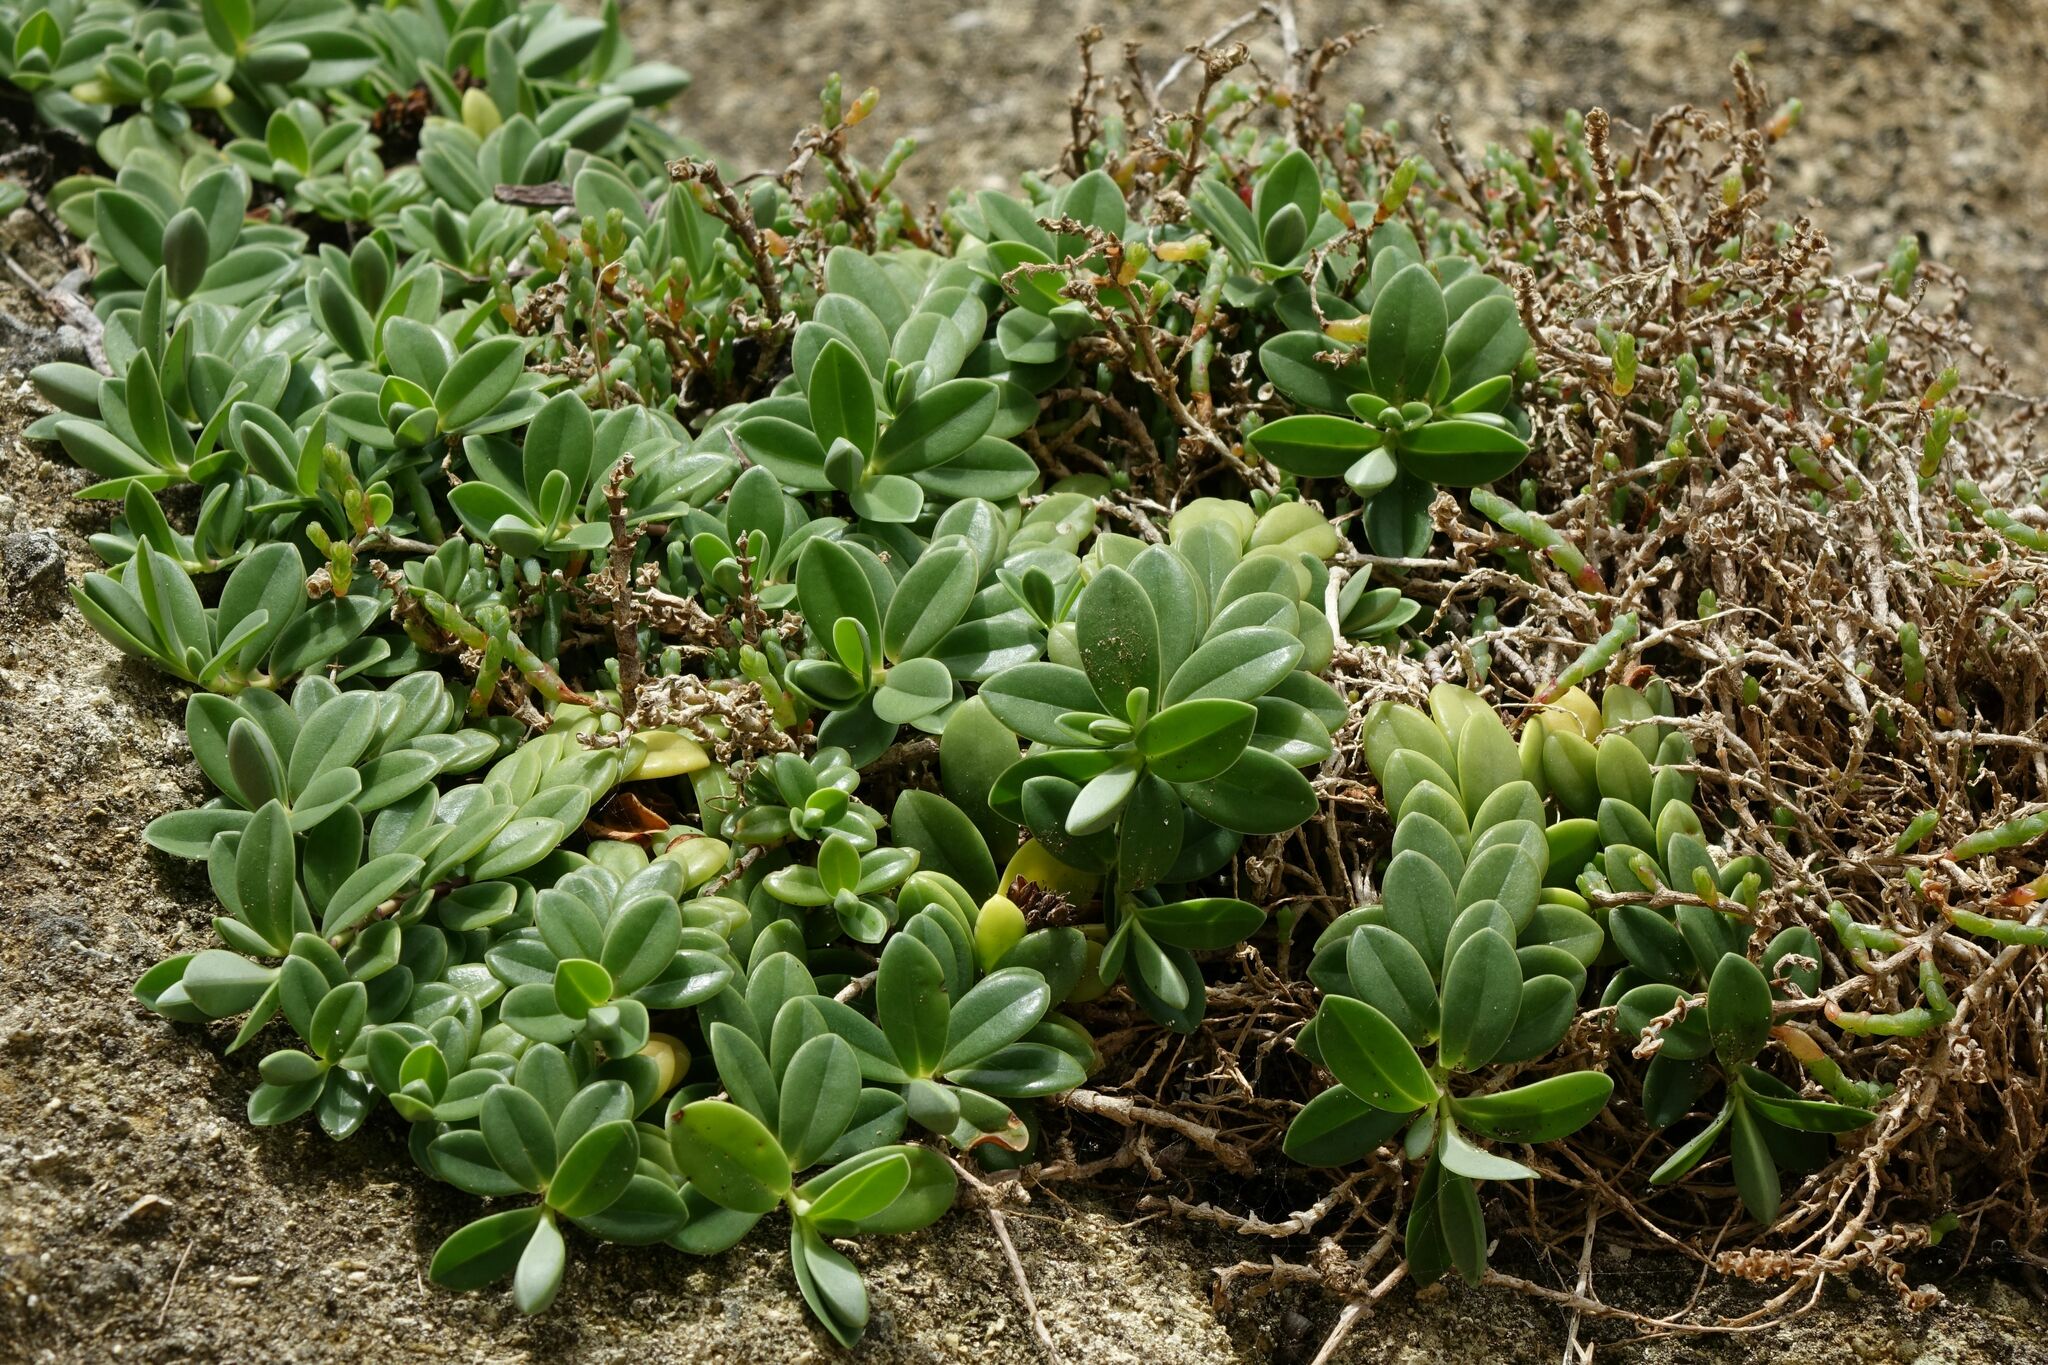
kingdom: Plantae
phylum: Tracheophyta
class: Magnoliopsida
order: Lamiales
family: Plantaginaceae
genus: Veronica
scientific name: Veronica chathamica
